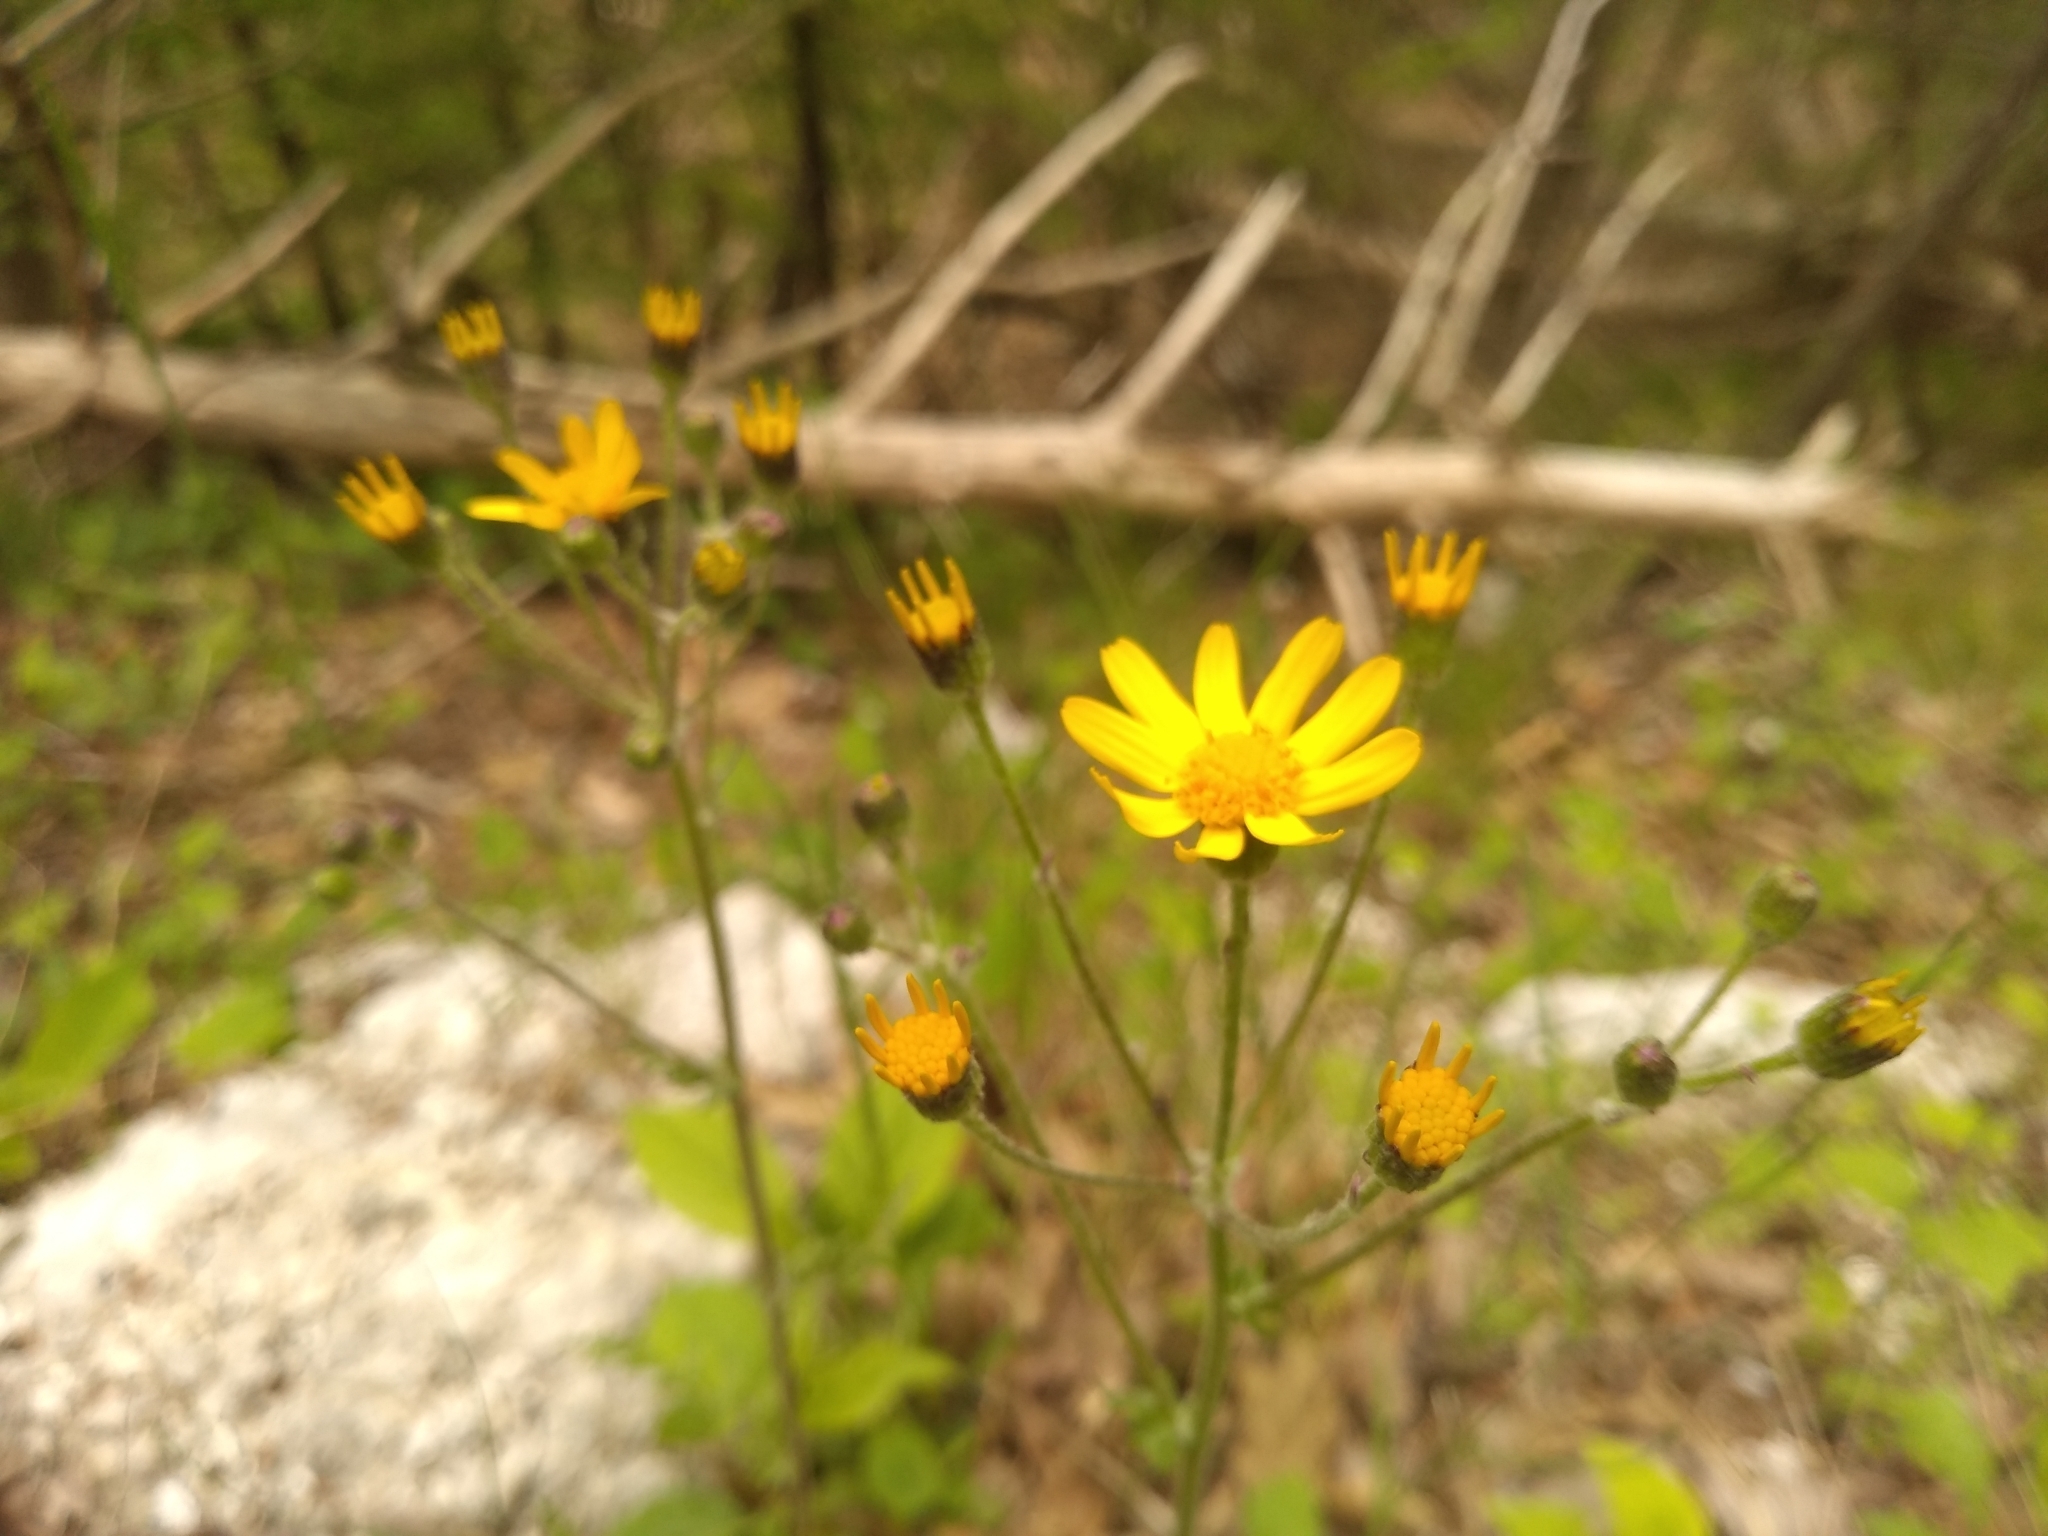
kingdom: Plantae
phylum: Tracheophyta
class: Magnoliopsida
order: Asterales
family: Asteraceae
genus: Packera
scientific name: Packera paupercula
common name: Balsam groundsel
